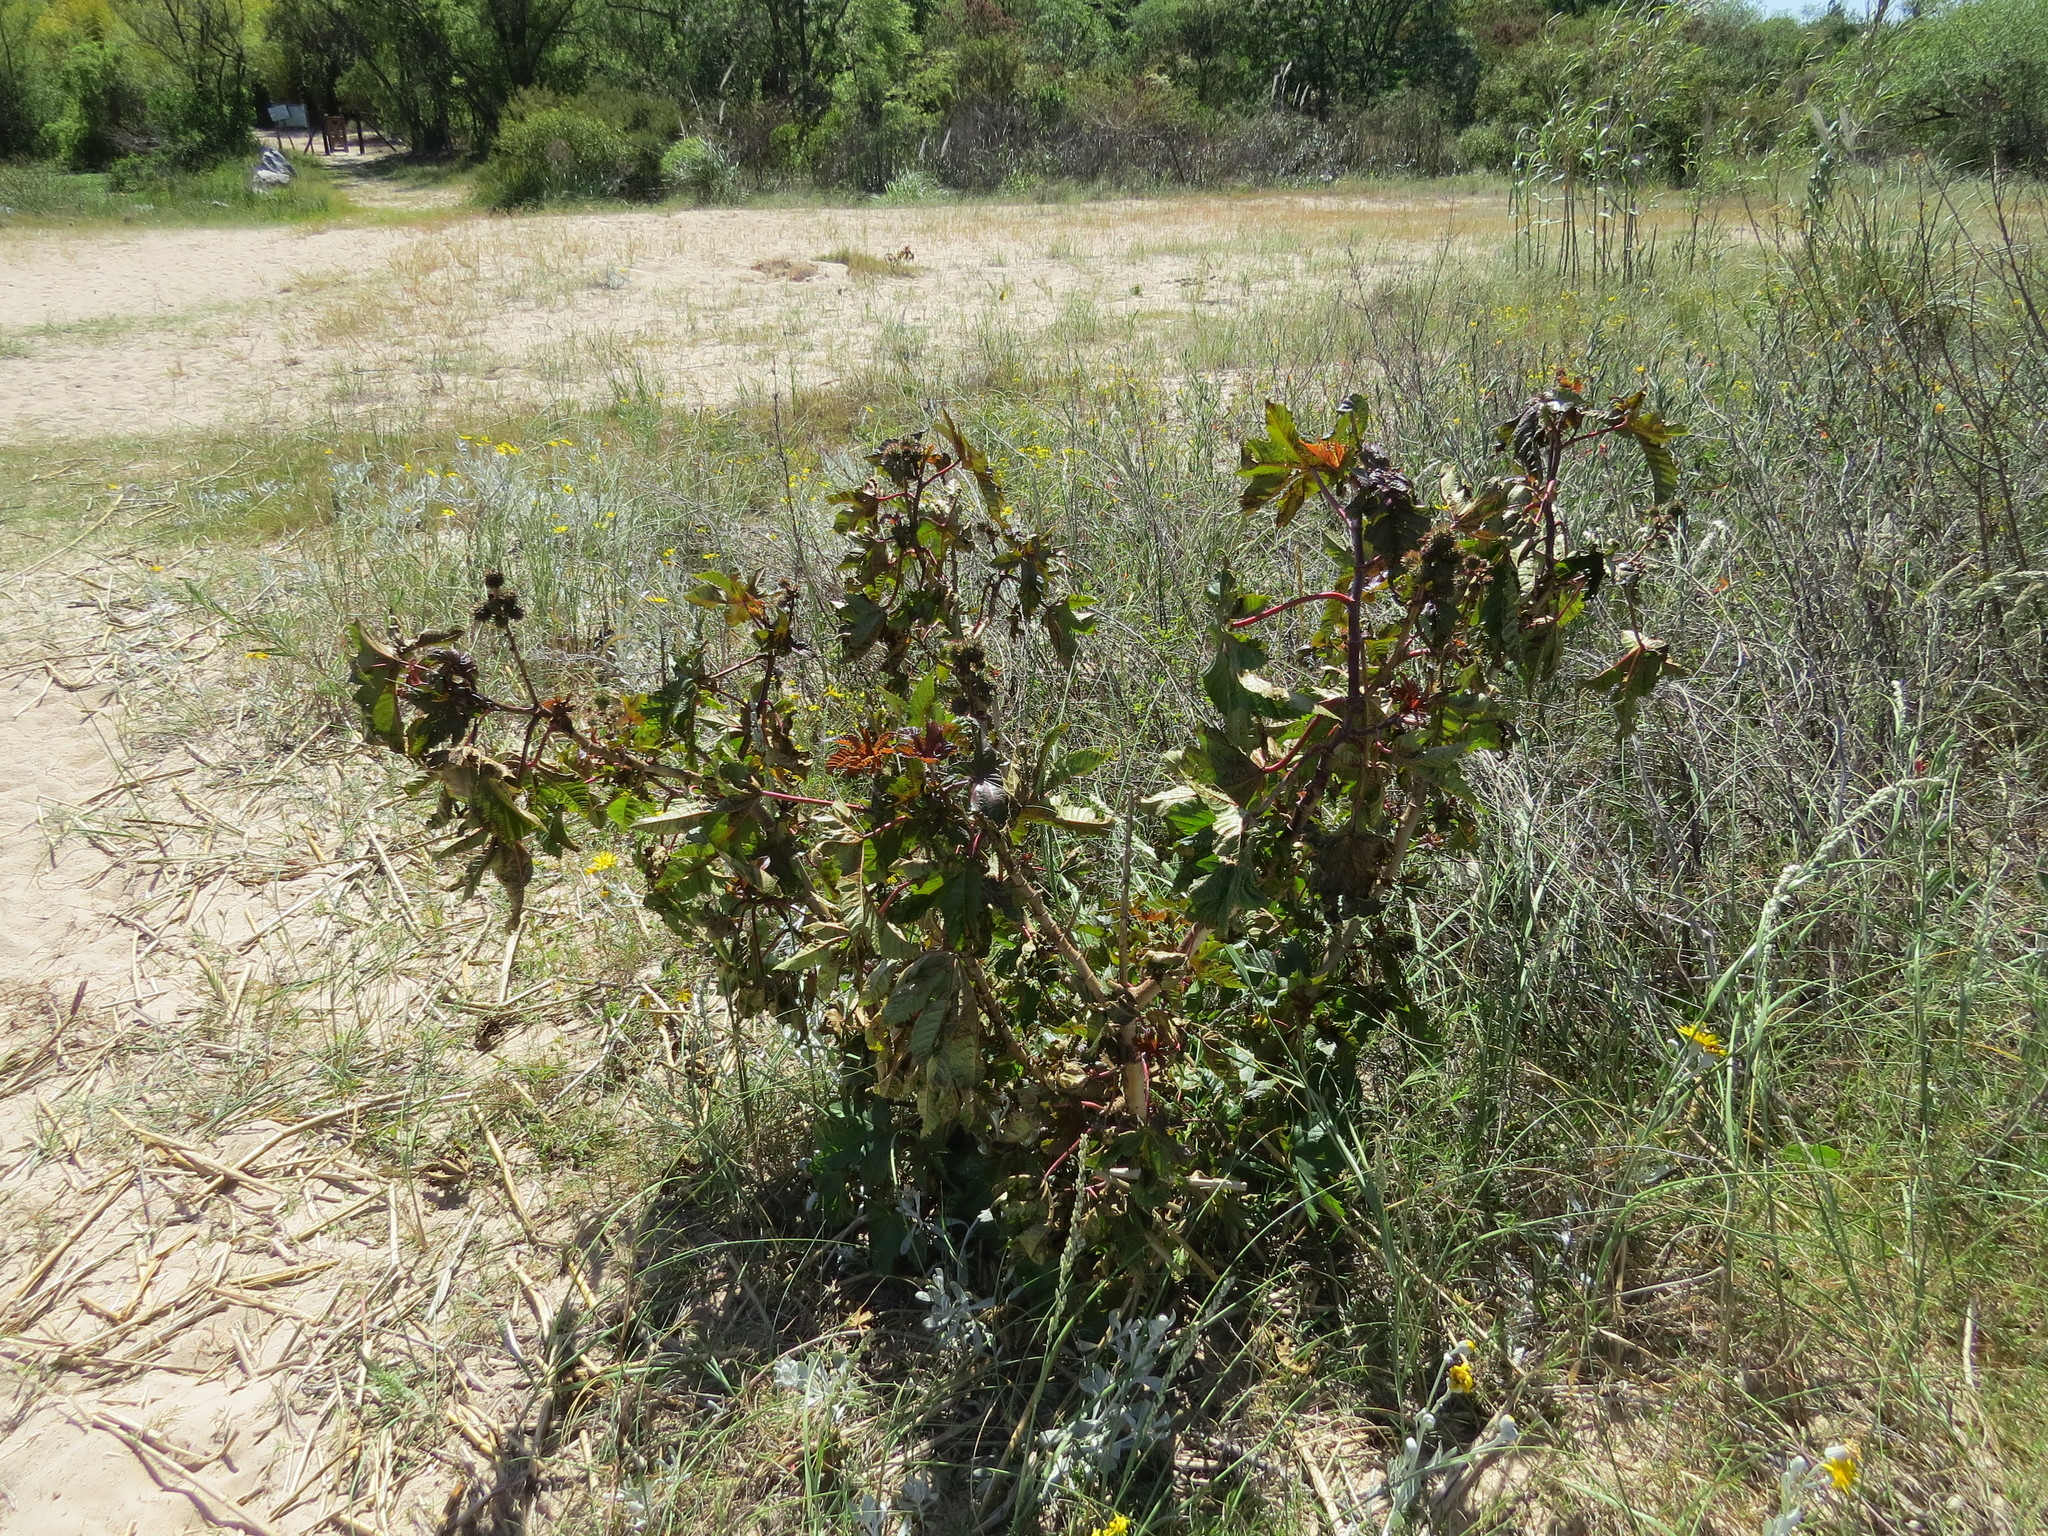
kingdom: Plantae
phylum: Tracheophyta
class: Magnoliopsida
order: Malpighiales
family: Euphorbiaceae
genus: Ricinus
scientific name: Ricinus communis
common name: Castor-oil-plant
